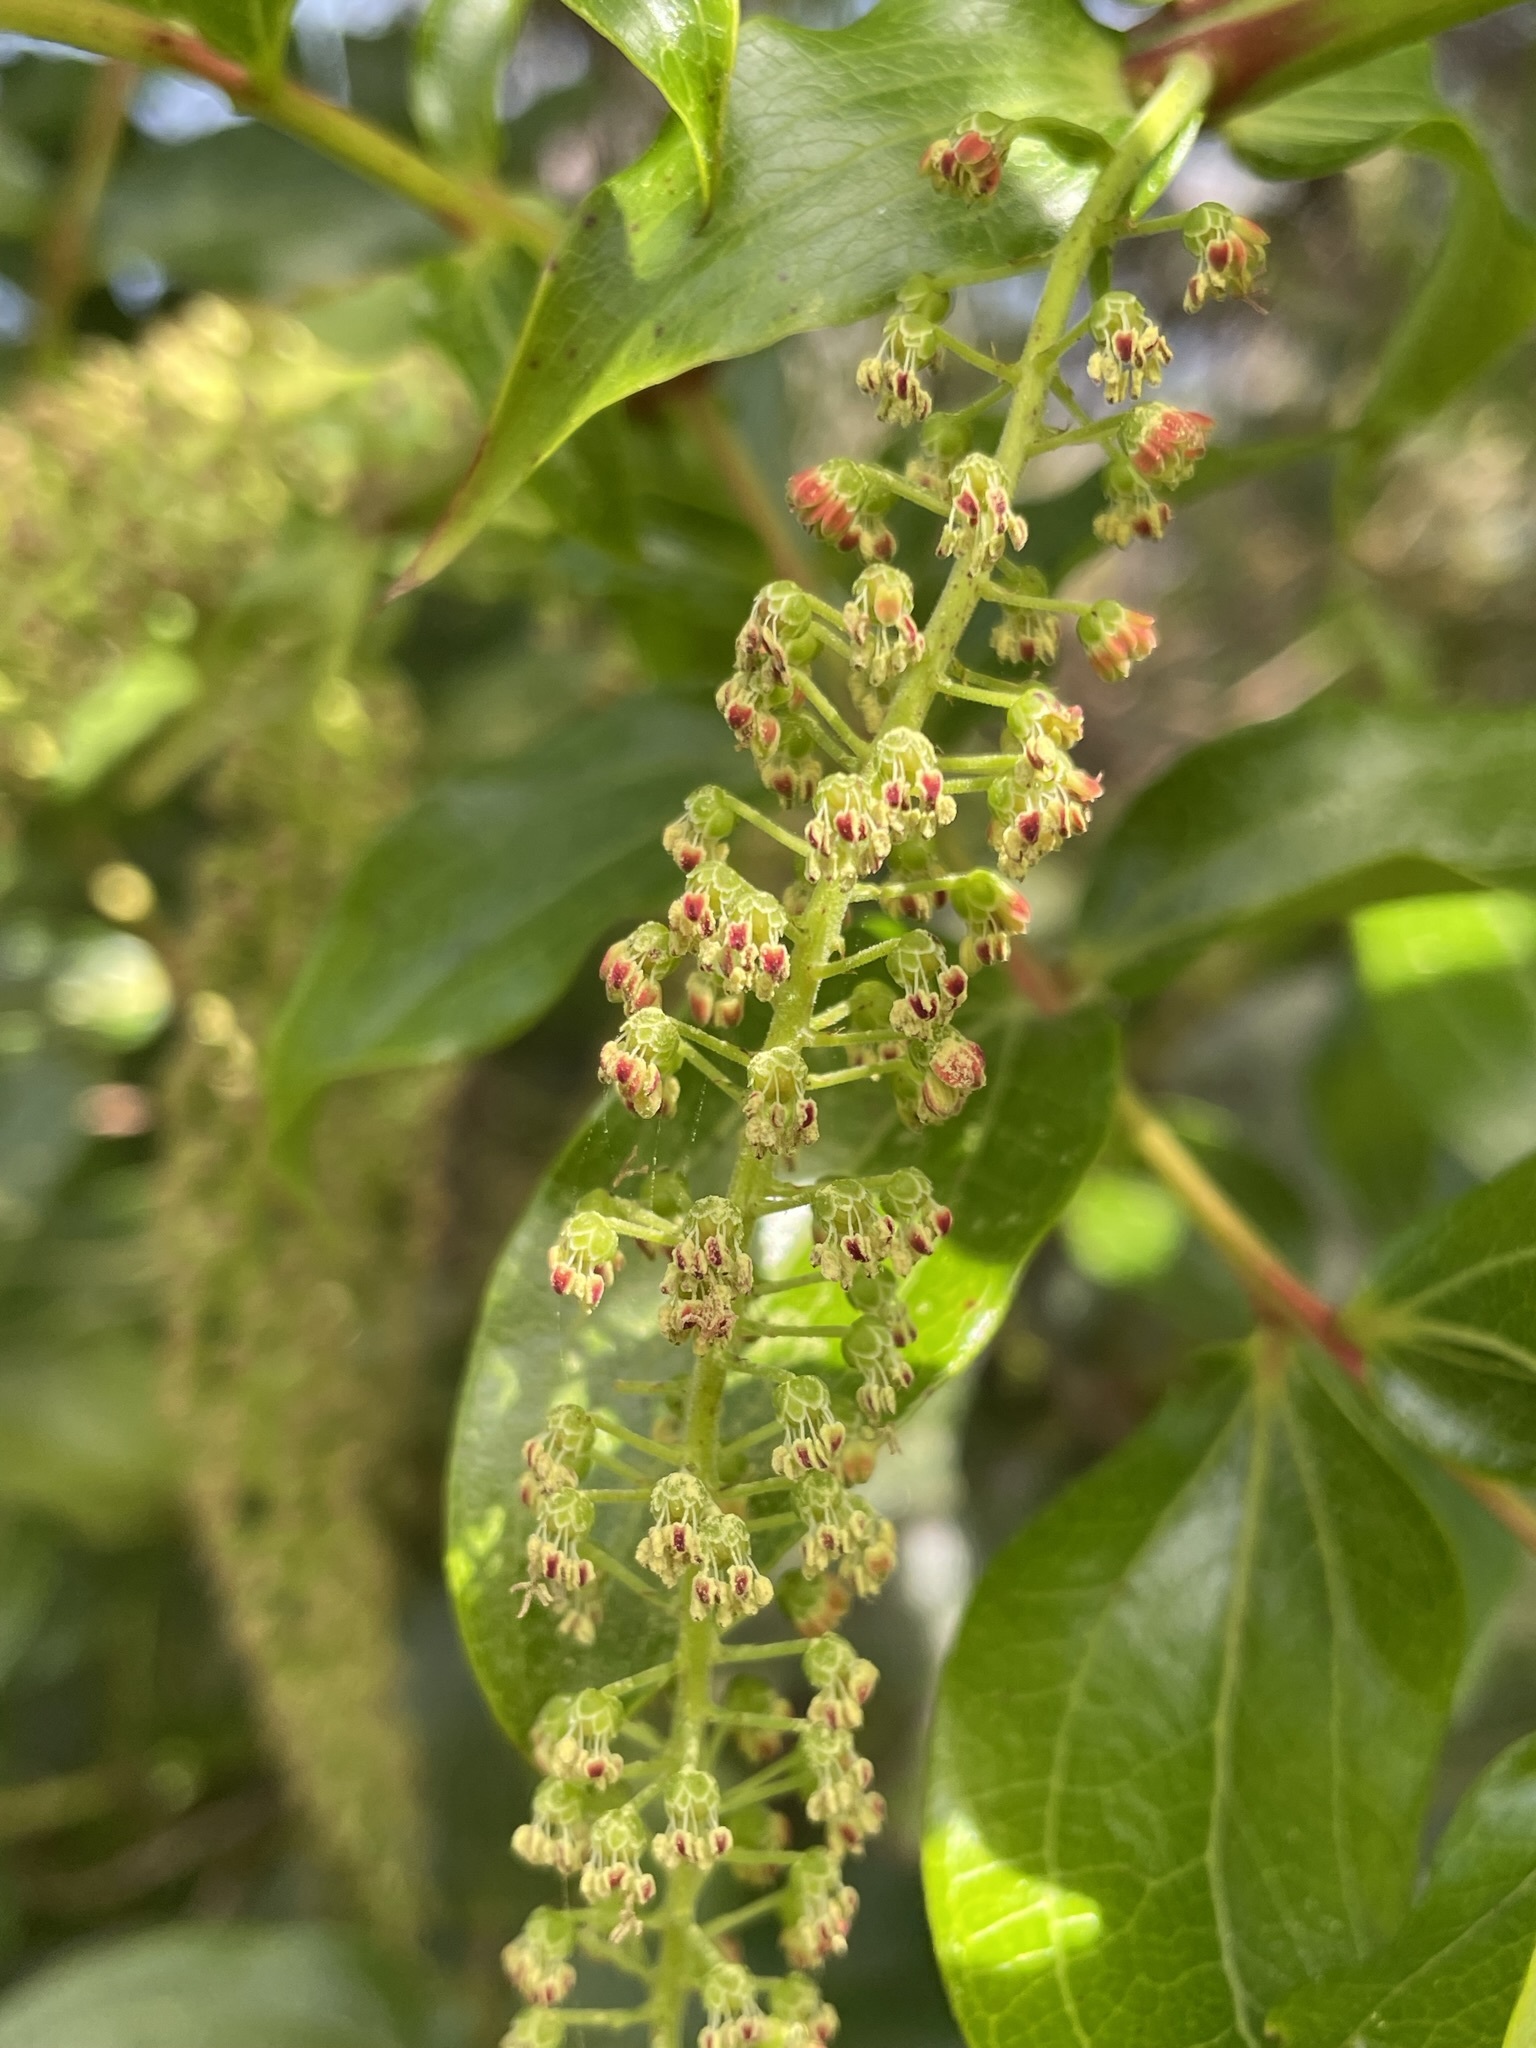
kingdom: Plantae
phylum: Tracheophyta
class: Magnoliopsida
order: Cucurbitales
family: Coriariaceae
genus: Coriaria
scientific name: Coriaria arborea
